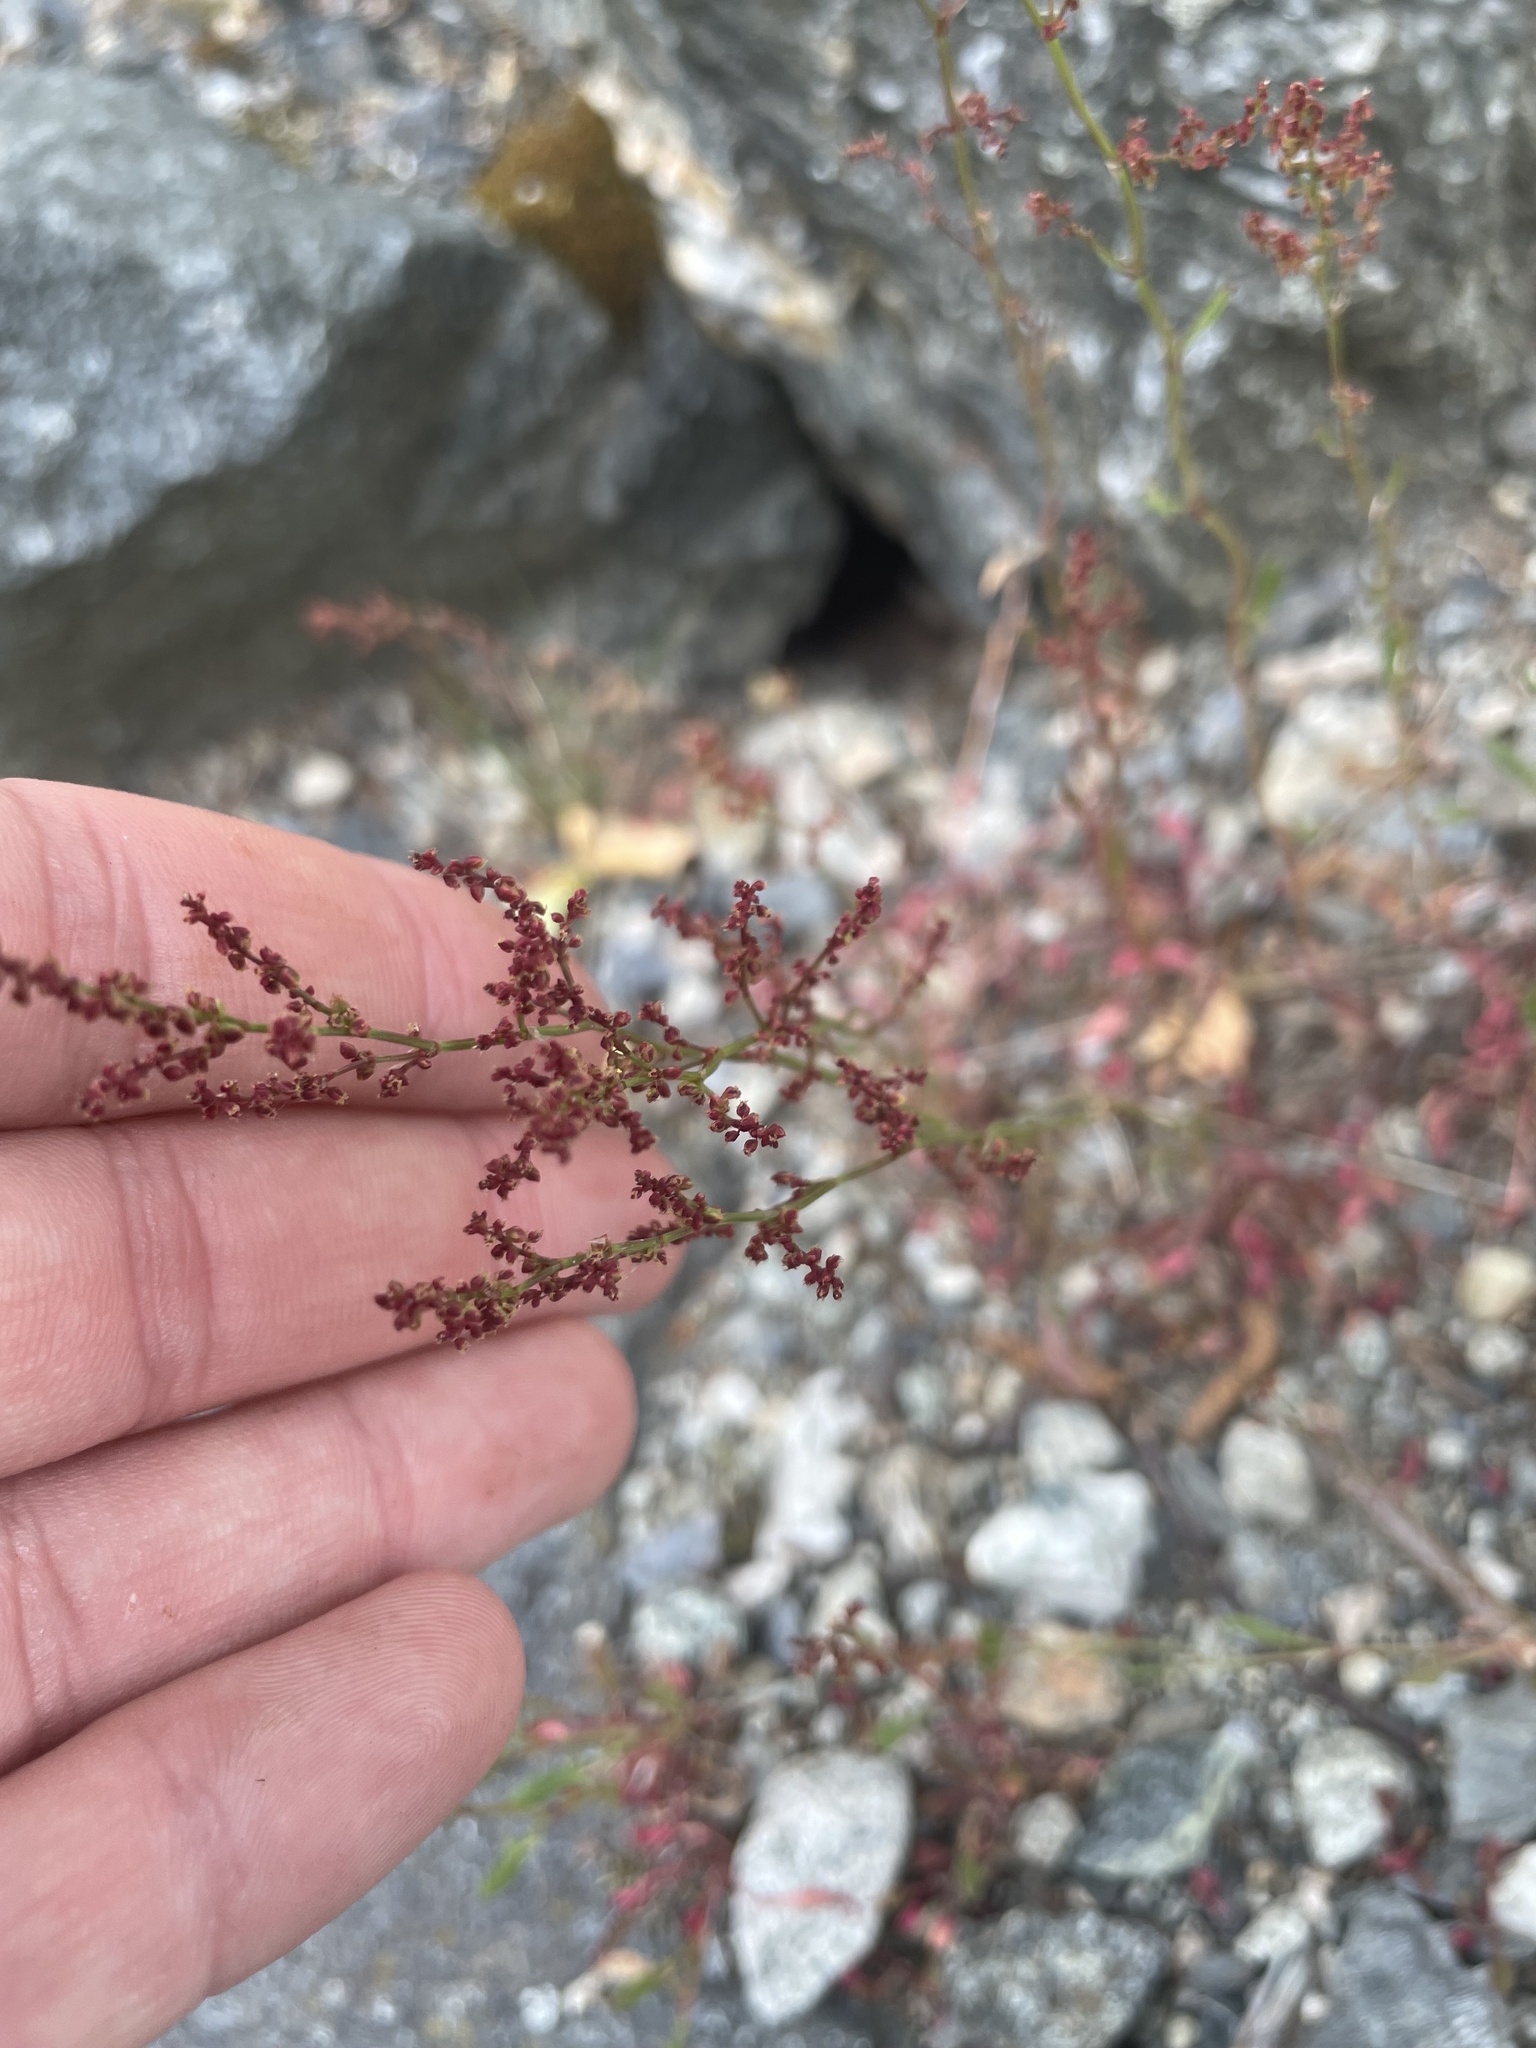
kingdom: Plantae
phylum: Tracheophyta
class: Magnoliopsida
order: Caryophyllales
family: Polygonaceae
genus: Rumex
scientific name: Rumex acetosella
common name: Common sheep sorrel
